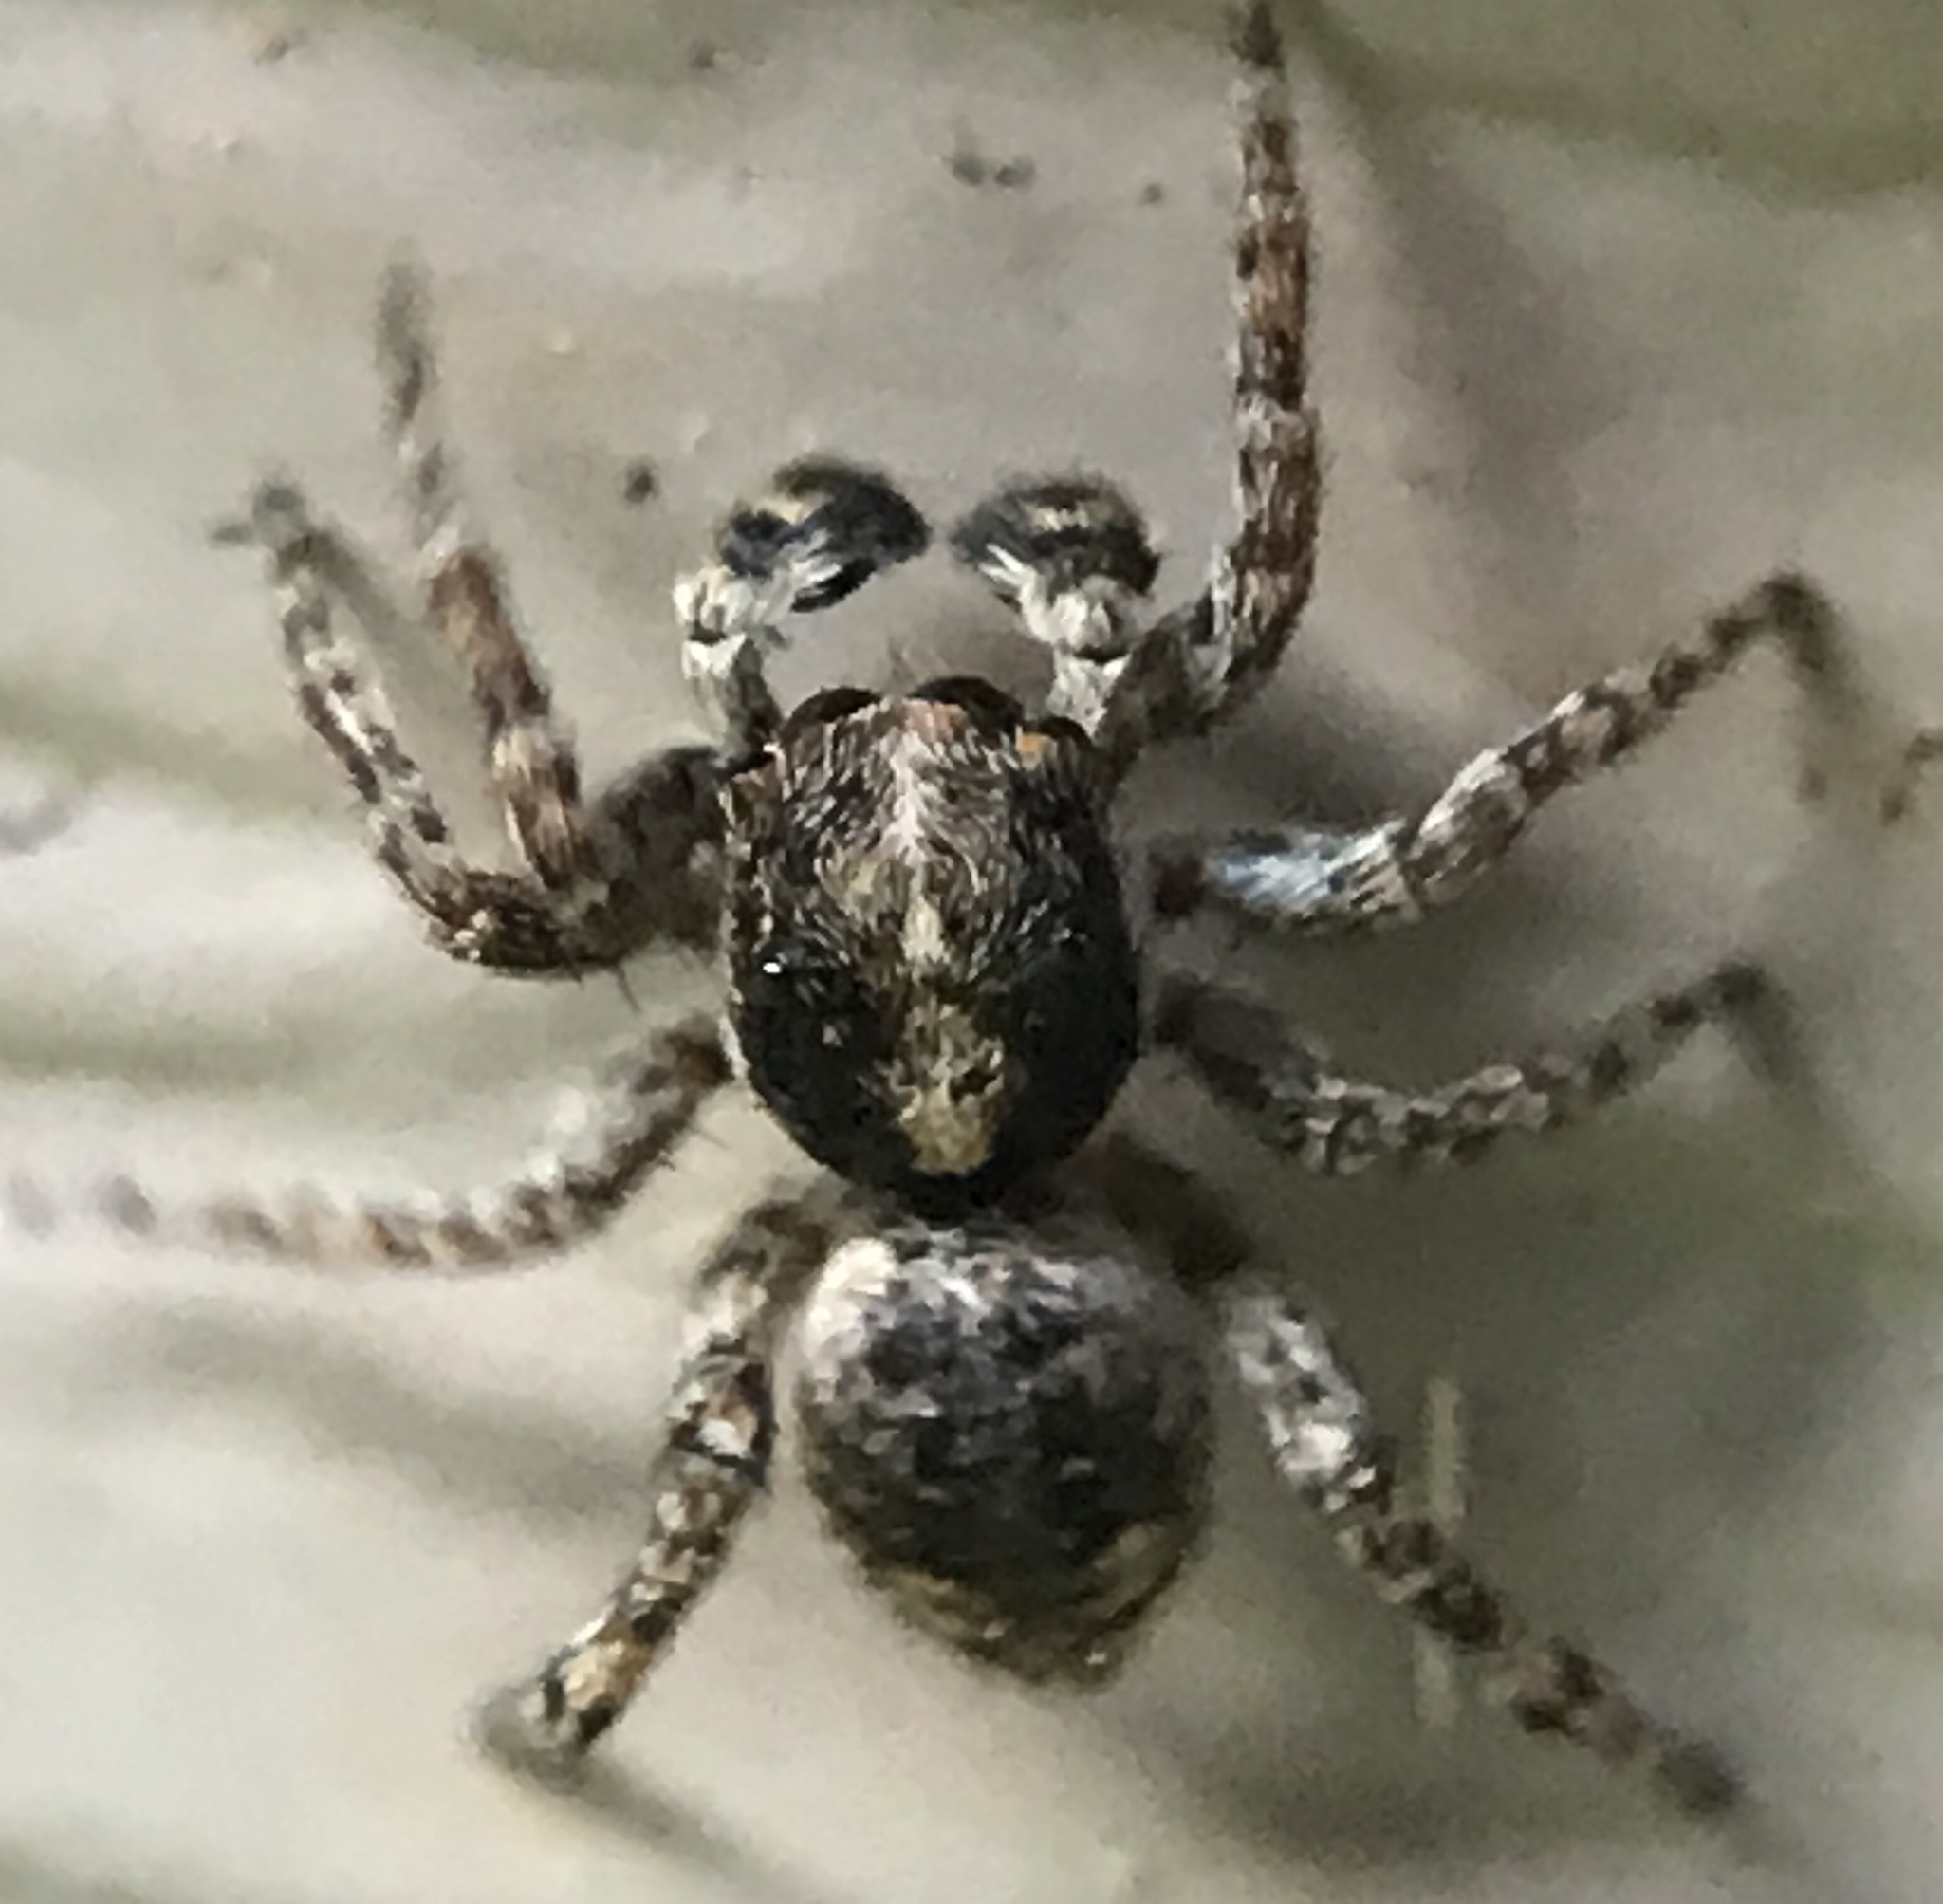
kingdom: Animalia
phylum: Arthropoda
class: Arachnida
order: Araneae
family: Salticidae
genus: Attulus
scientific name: Attulus fasciger
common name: Asiatic wall jumping spider
